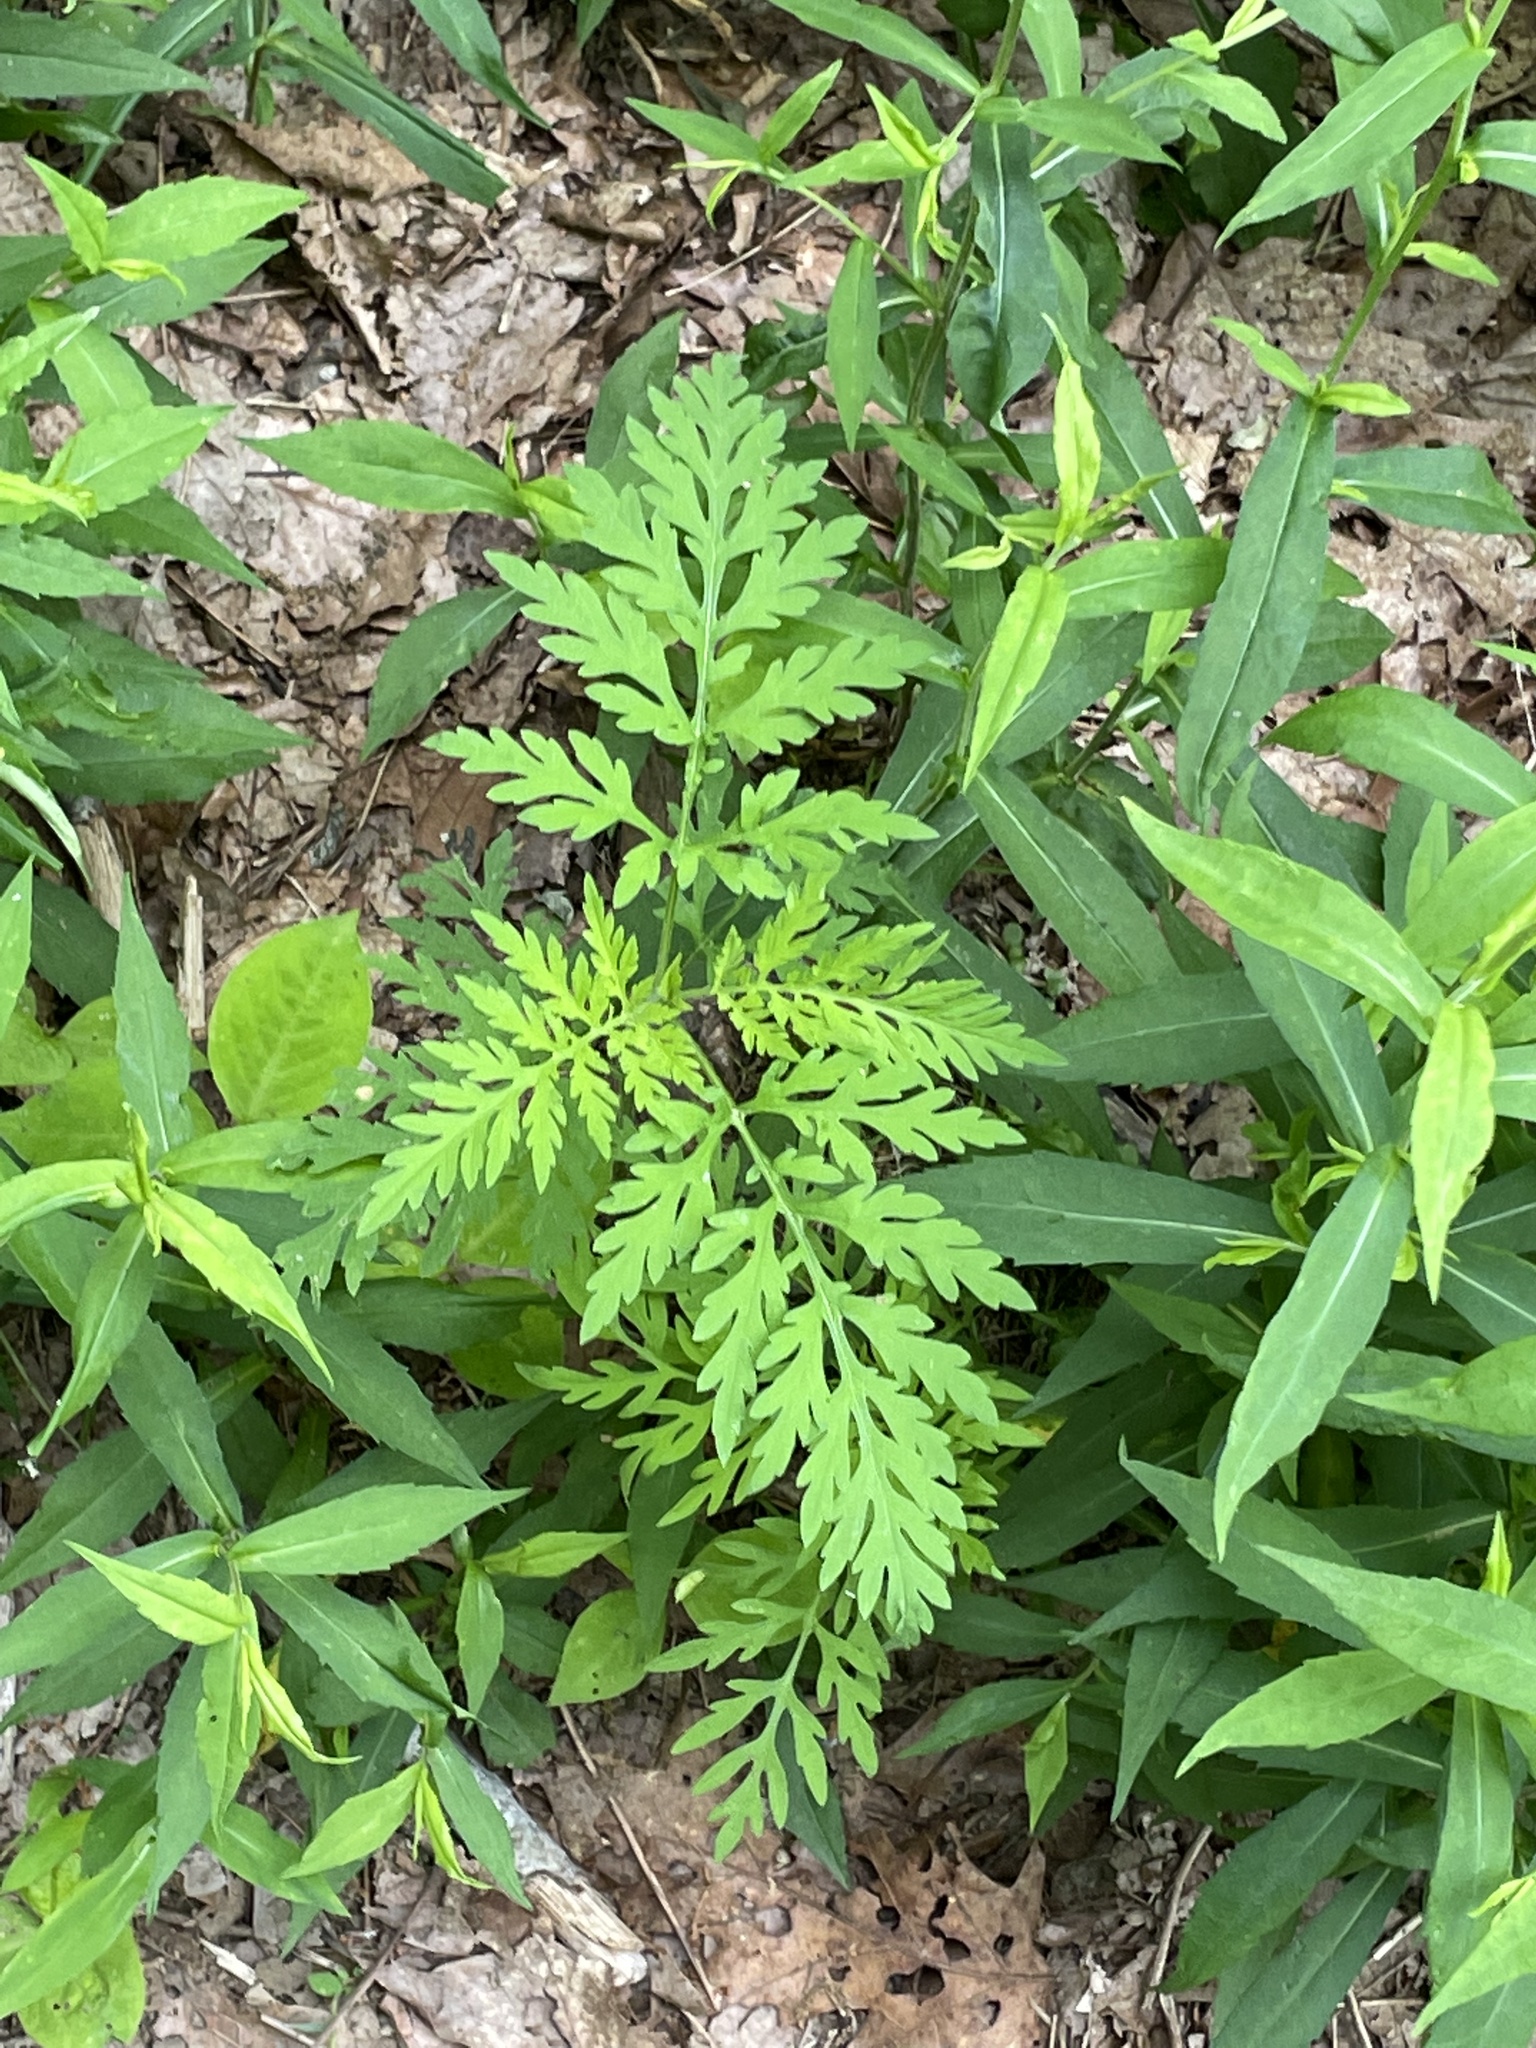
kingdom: Plantae
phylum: Tracheophyta
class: Magnoliopsida
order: Asterales
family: Asteraceae
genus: Ambrosia
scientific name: Ambrosia artemisiifolia
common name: Annual ragweed
